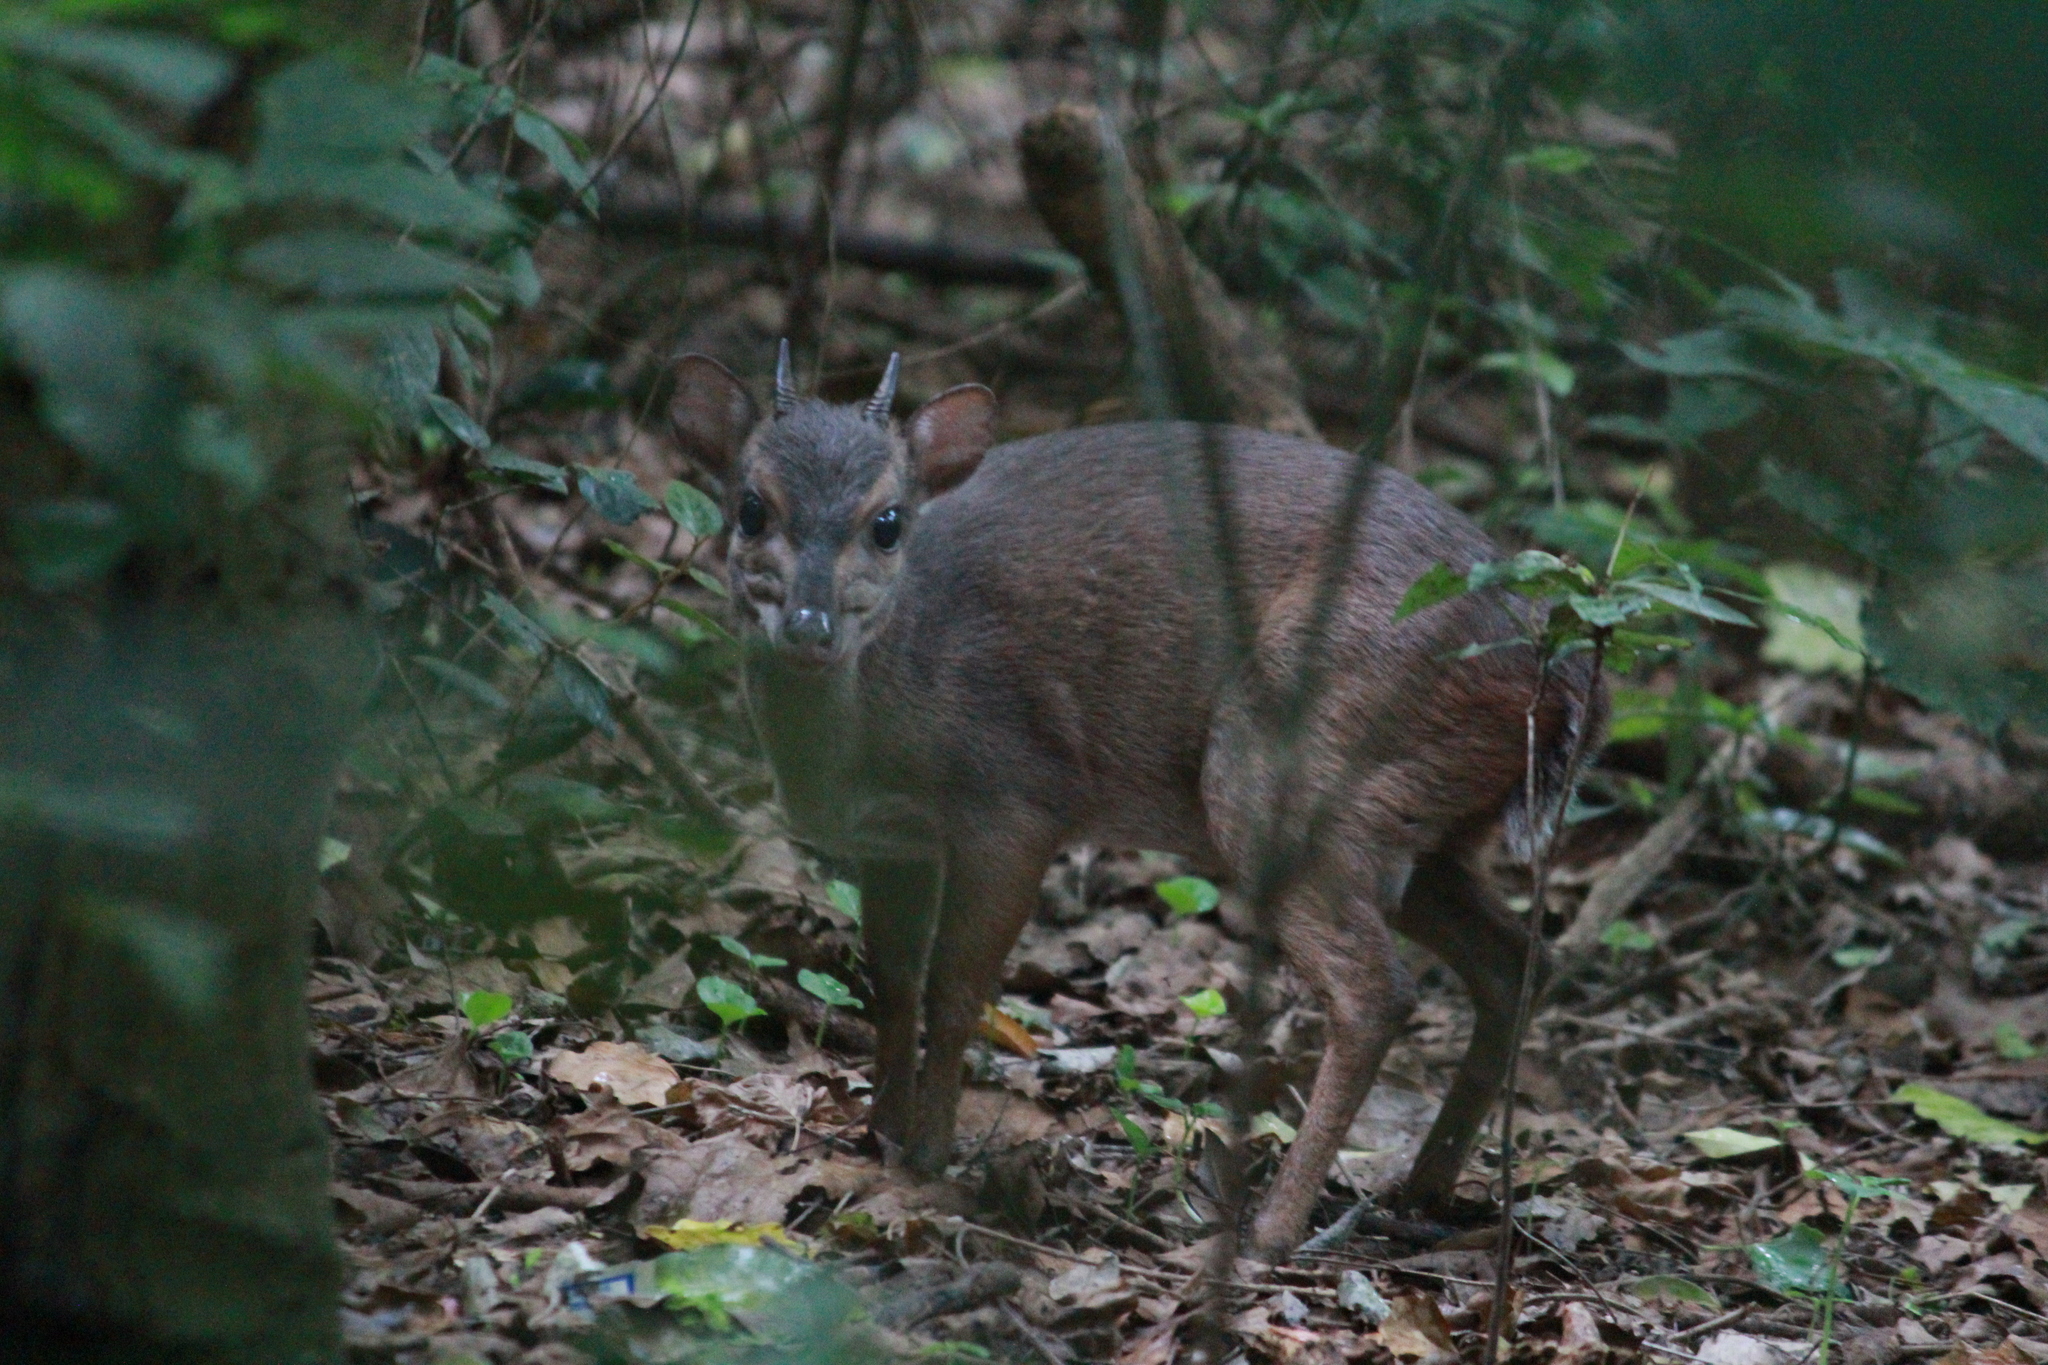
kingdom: Animalia
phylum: Chordata
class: Mammalia
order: Artiodactyla
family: Bovidae
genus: Philantomba
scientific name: Philantomba monticola
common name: Blue duiker
